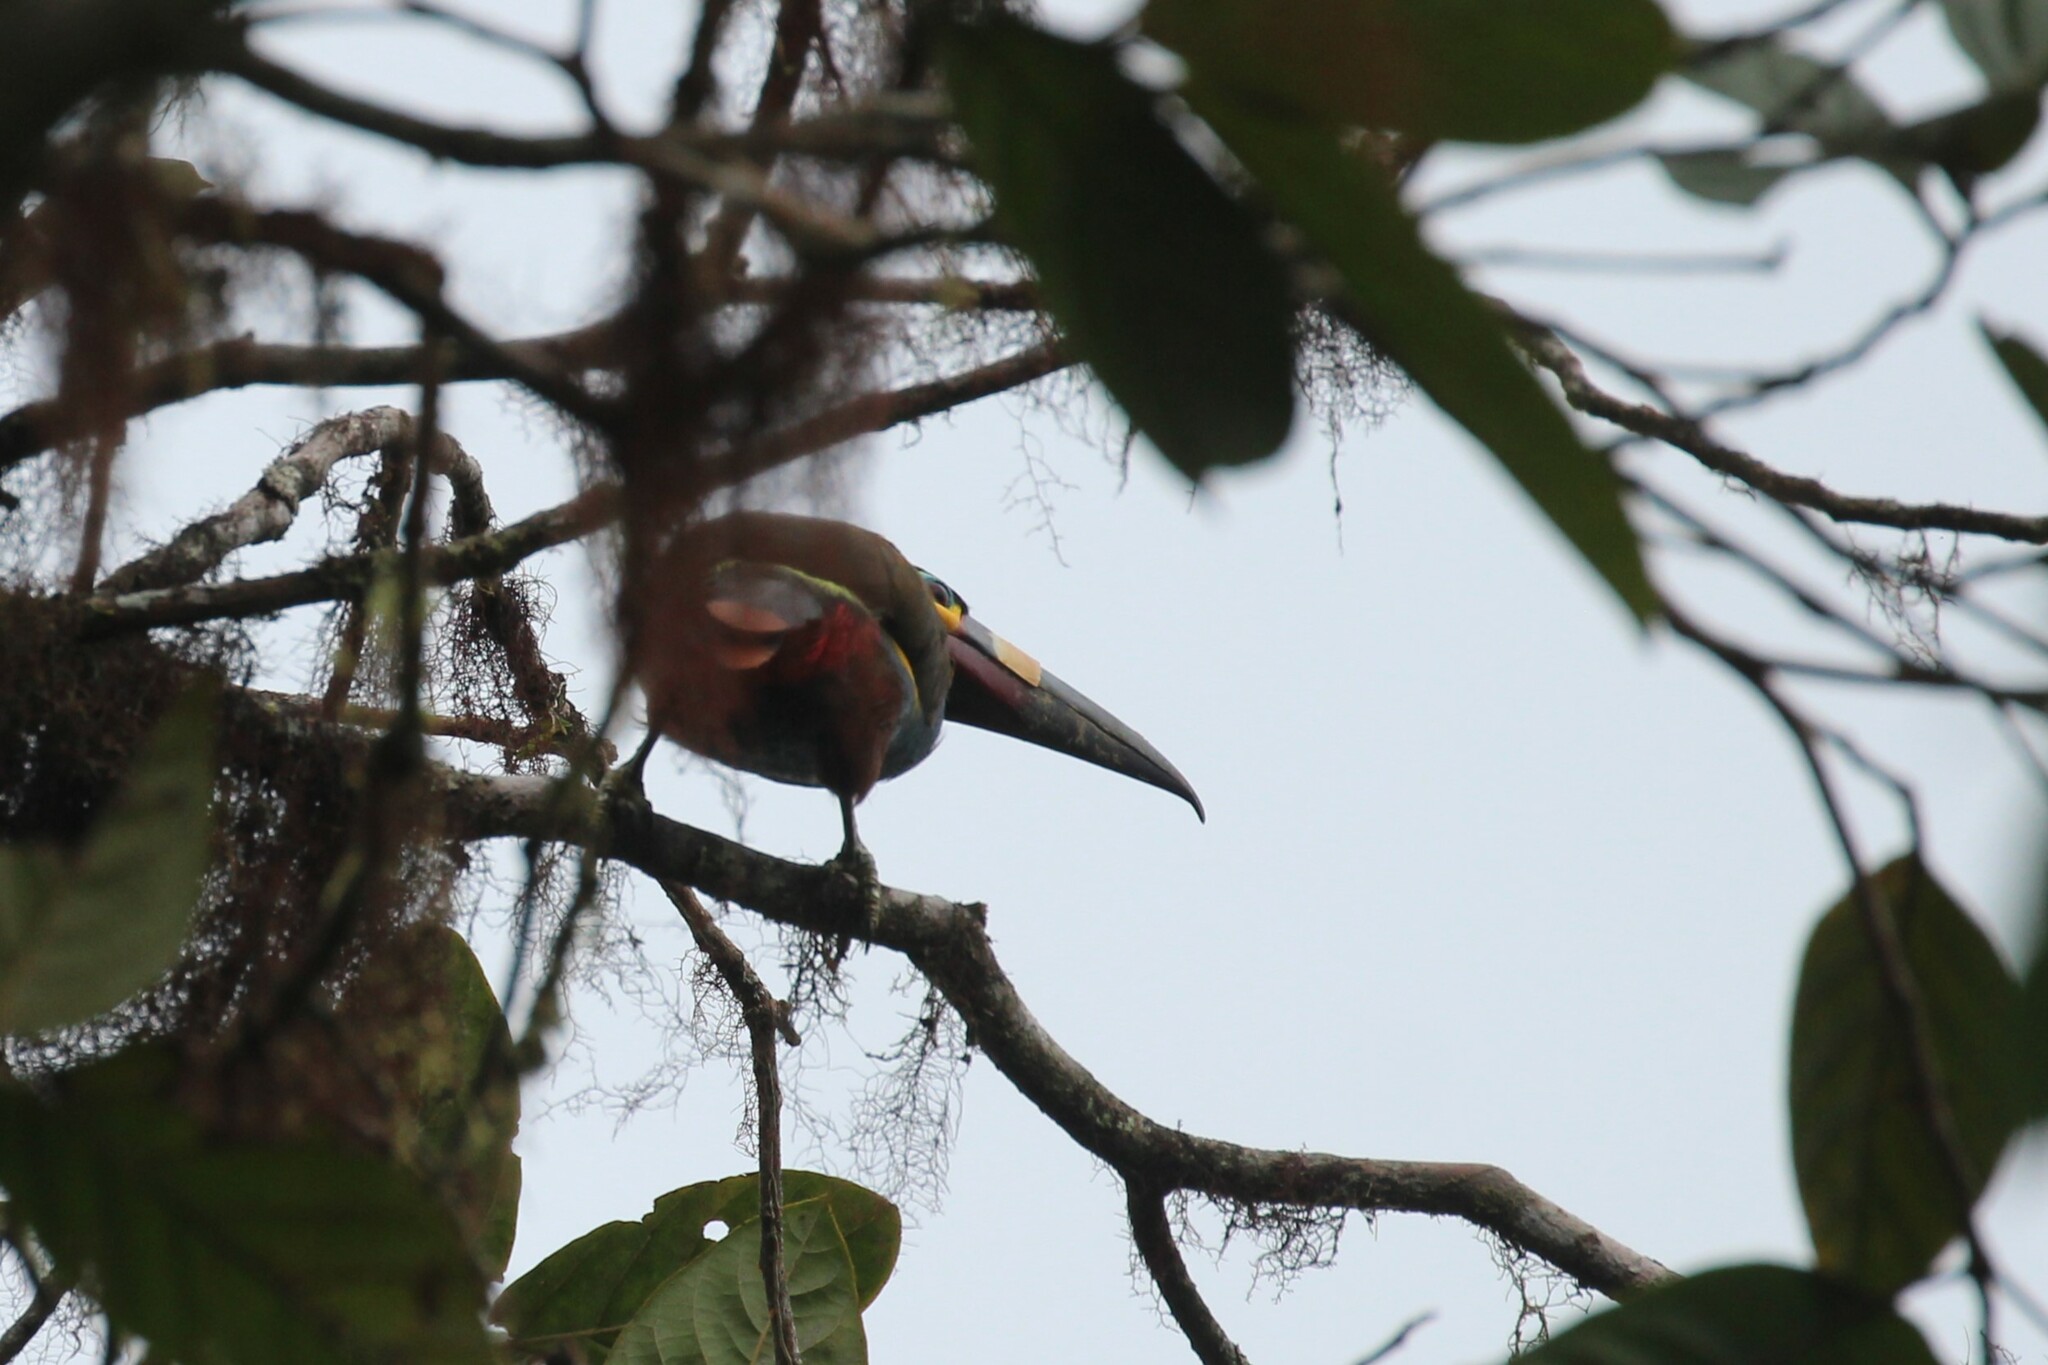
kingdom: Animalia
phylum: Chordata
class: Aves
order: Piciformes
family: Ramphastidae
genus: Andigena
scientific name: Andigena laminirostris
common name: Plate-billed mountain toucan
